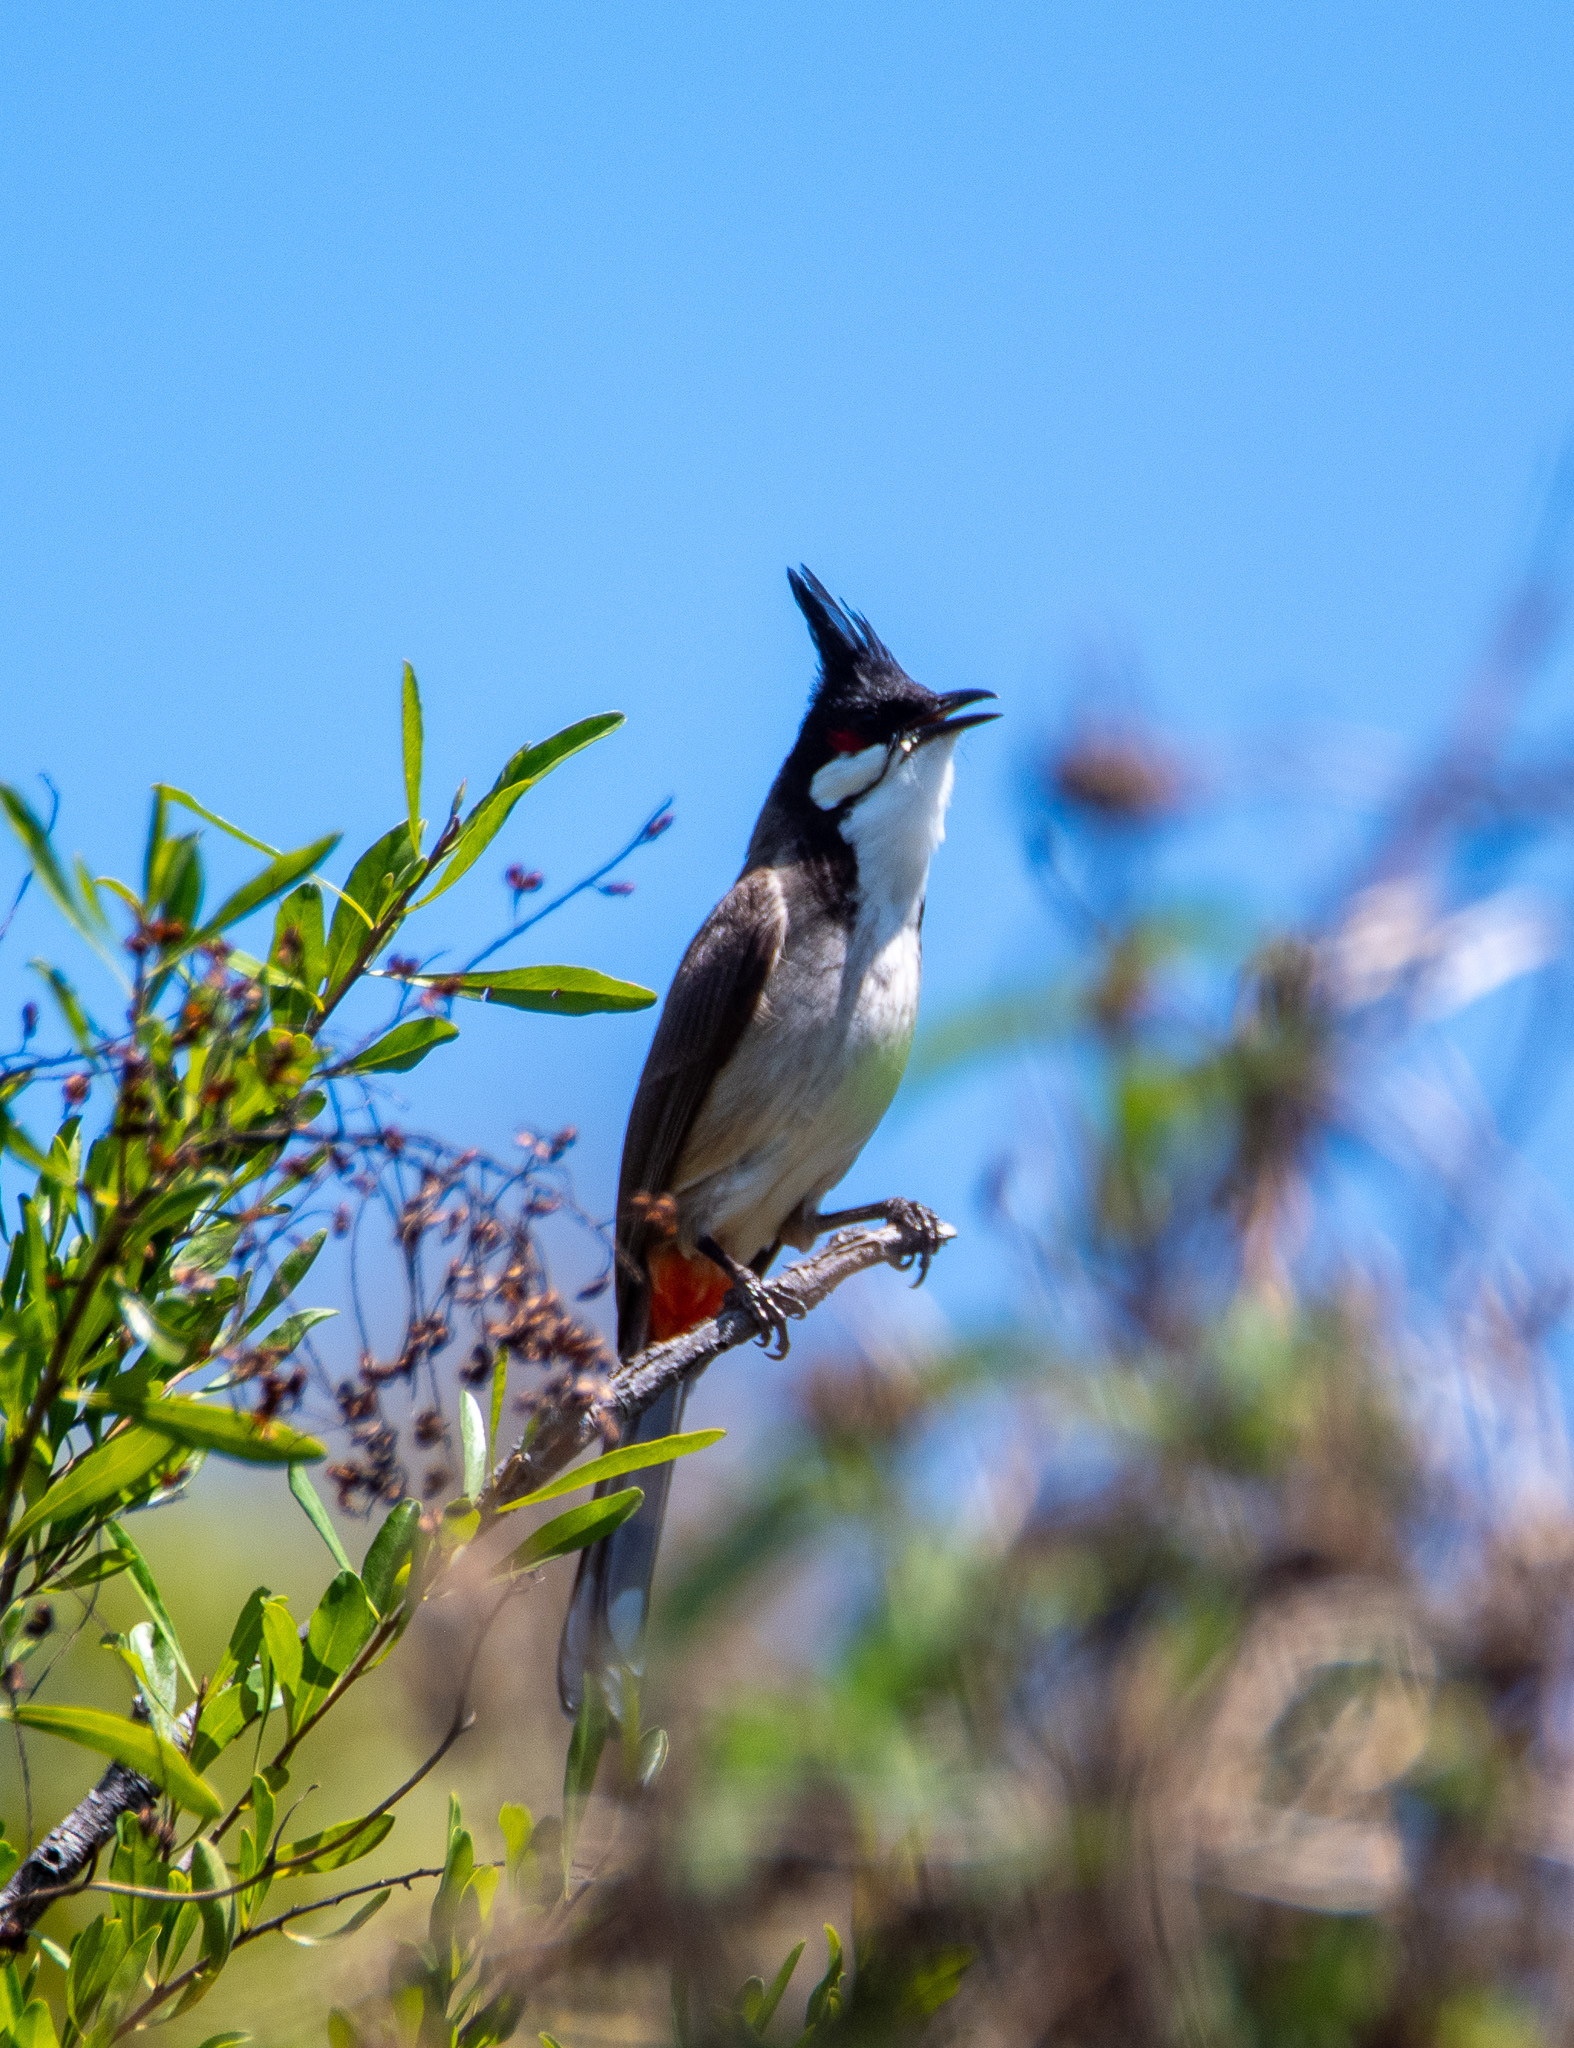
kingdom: Animalia
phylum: Chordata
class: Aves
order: Passeriformes
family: Pycnonotidae
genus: Pycnonotus
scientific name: Pycnonotus jocosus
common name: Red-whiskered bulbul
